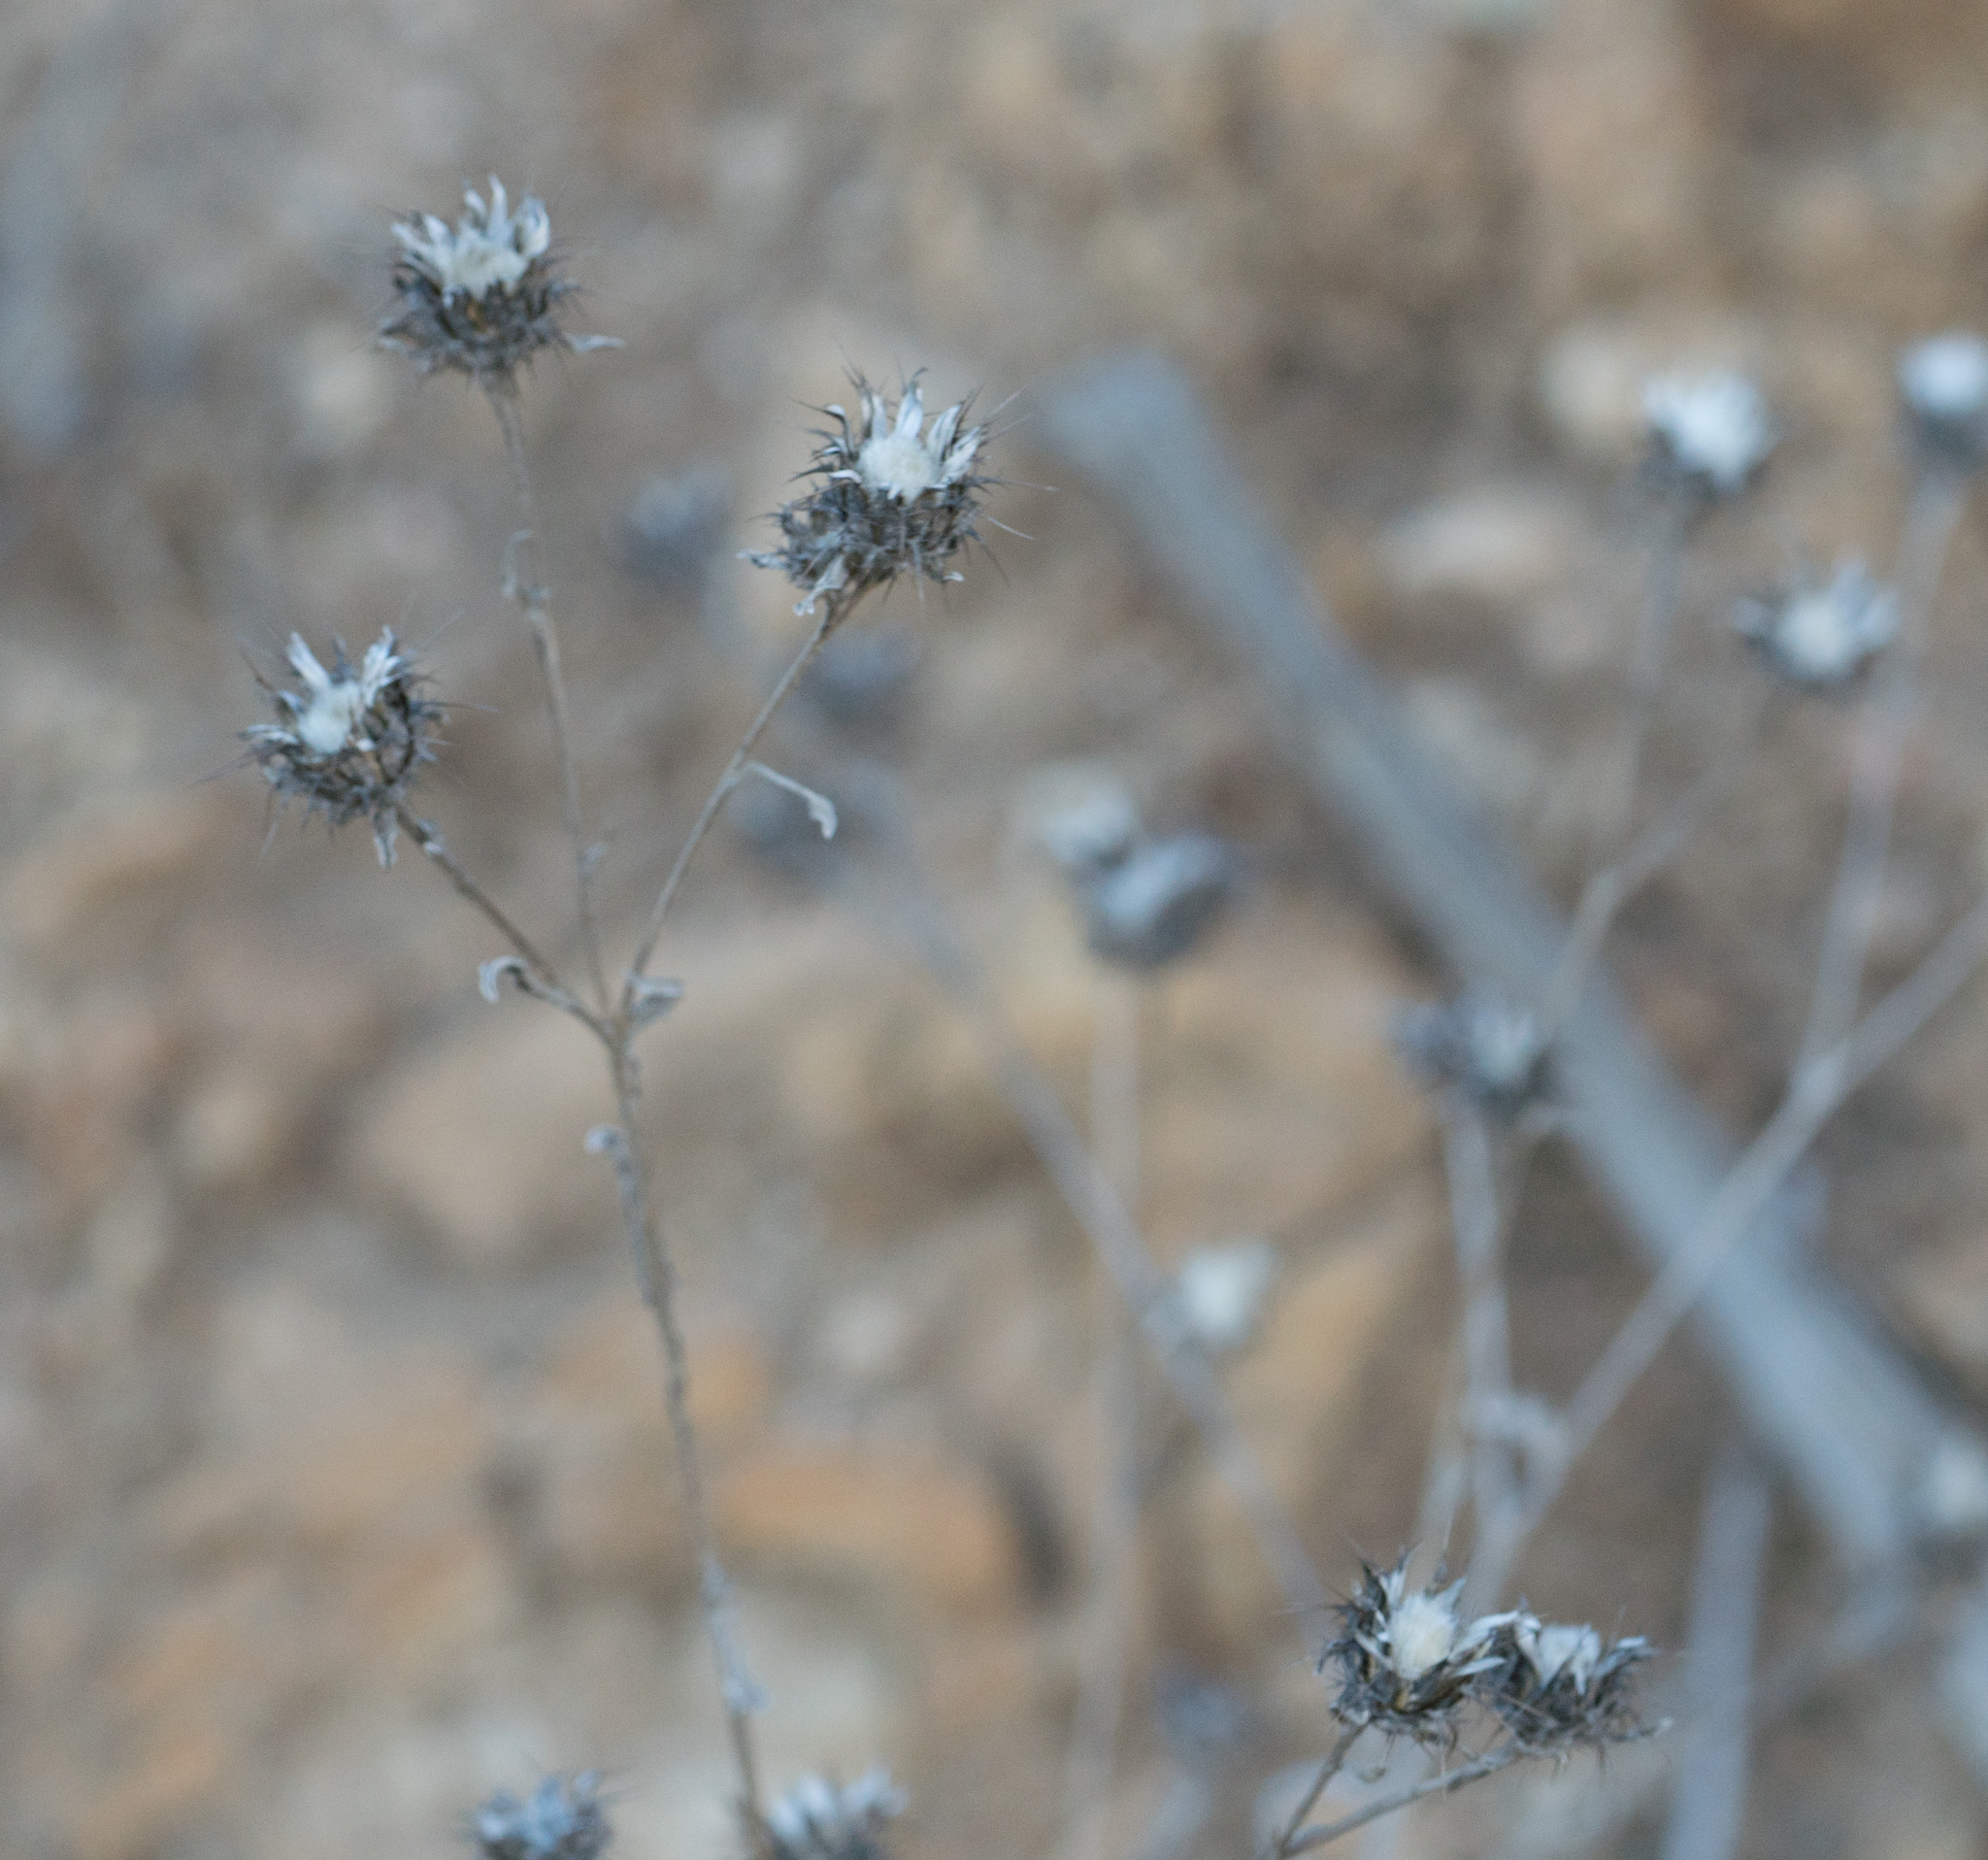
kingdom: Plantae
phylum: Tracheophyta
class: Magnoliopsida
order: Asterales
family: Asteraceae
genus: Centaurea
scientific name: Centaurea melitensis
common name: Maltese star-thistle
